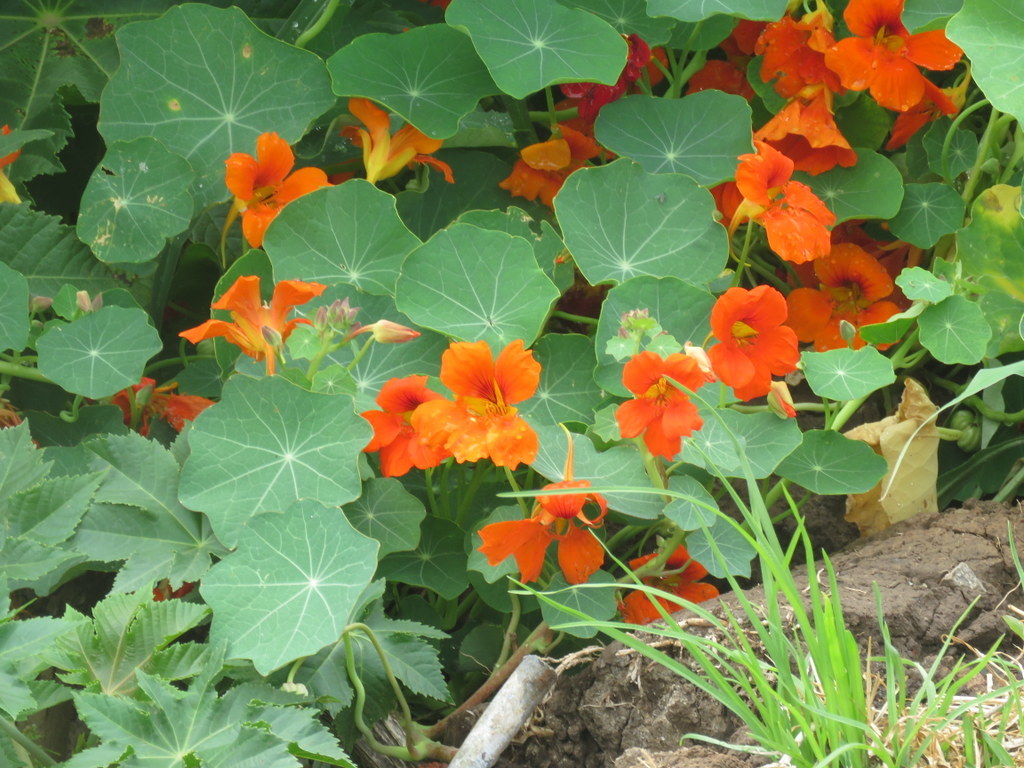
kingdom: Plantae
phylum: Tracheophyta
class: Magnoliopsida
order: Brassicales
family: Tropaeolaceae
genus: Tropaeolum
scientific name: Tropaeolum majus
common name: Nasturtium
